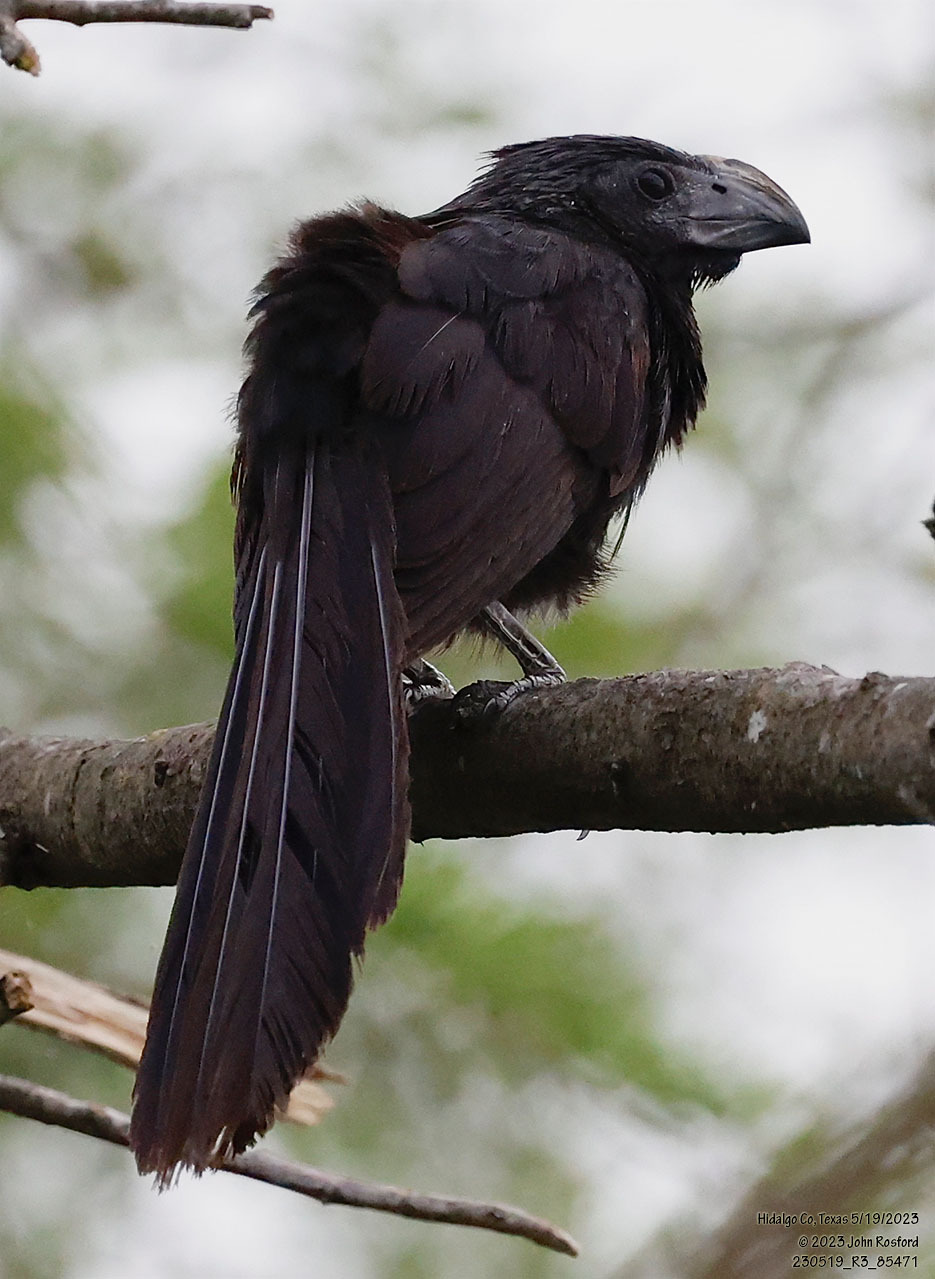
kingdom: Animalia
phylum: Chordata
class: Aves
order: Cuculiformes
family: Cuculidae
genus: Crotophaga
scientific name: Crotophaga sulcirostris
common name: Groove-billed ani
